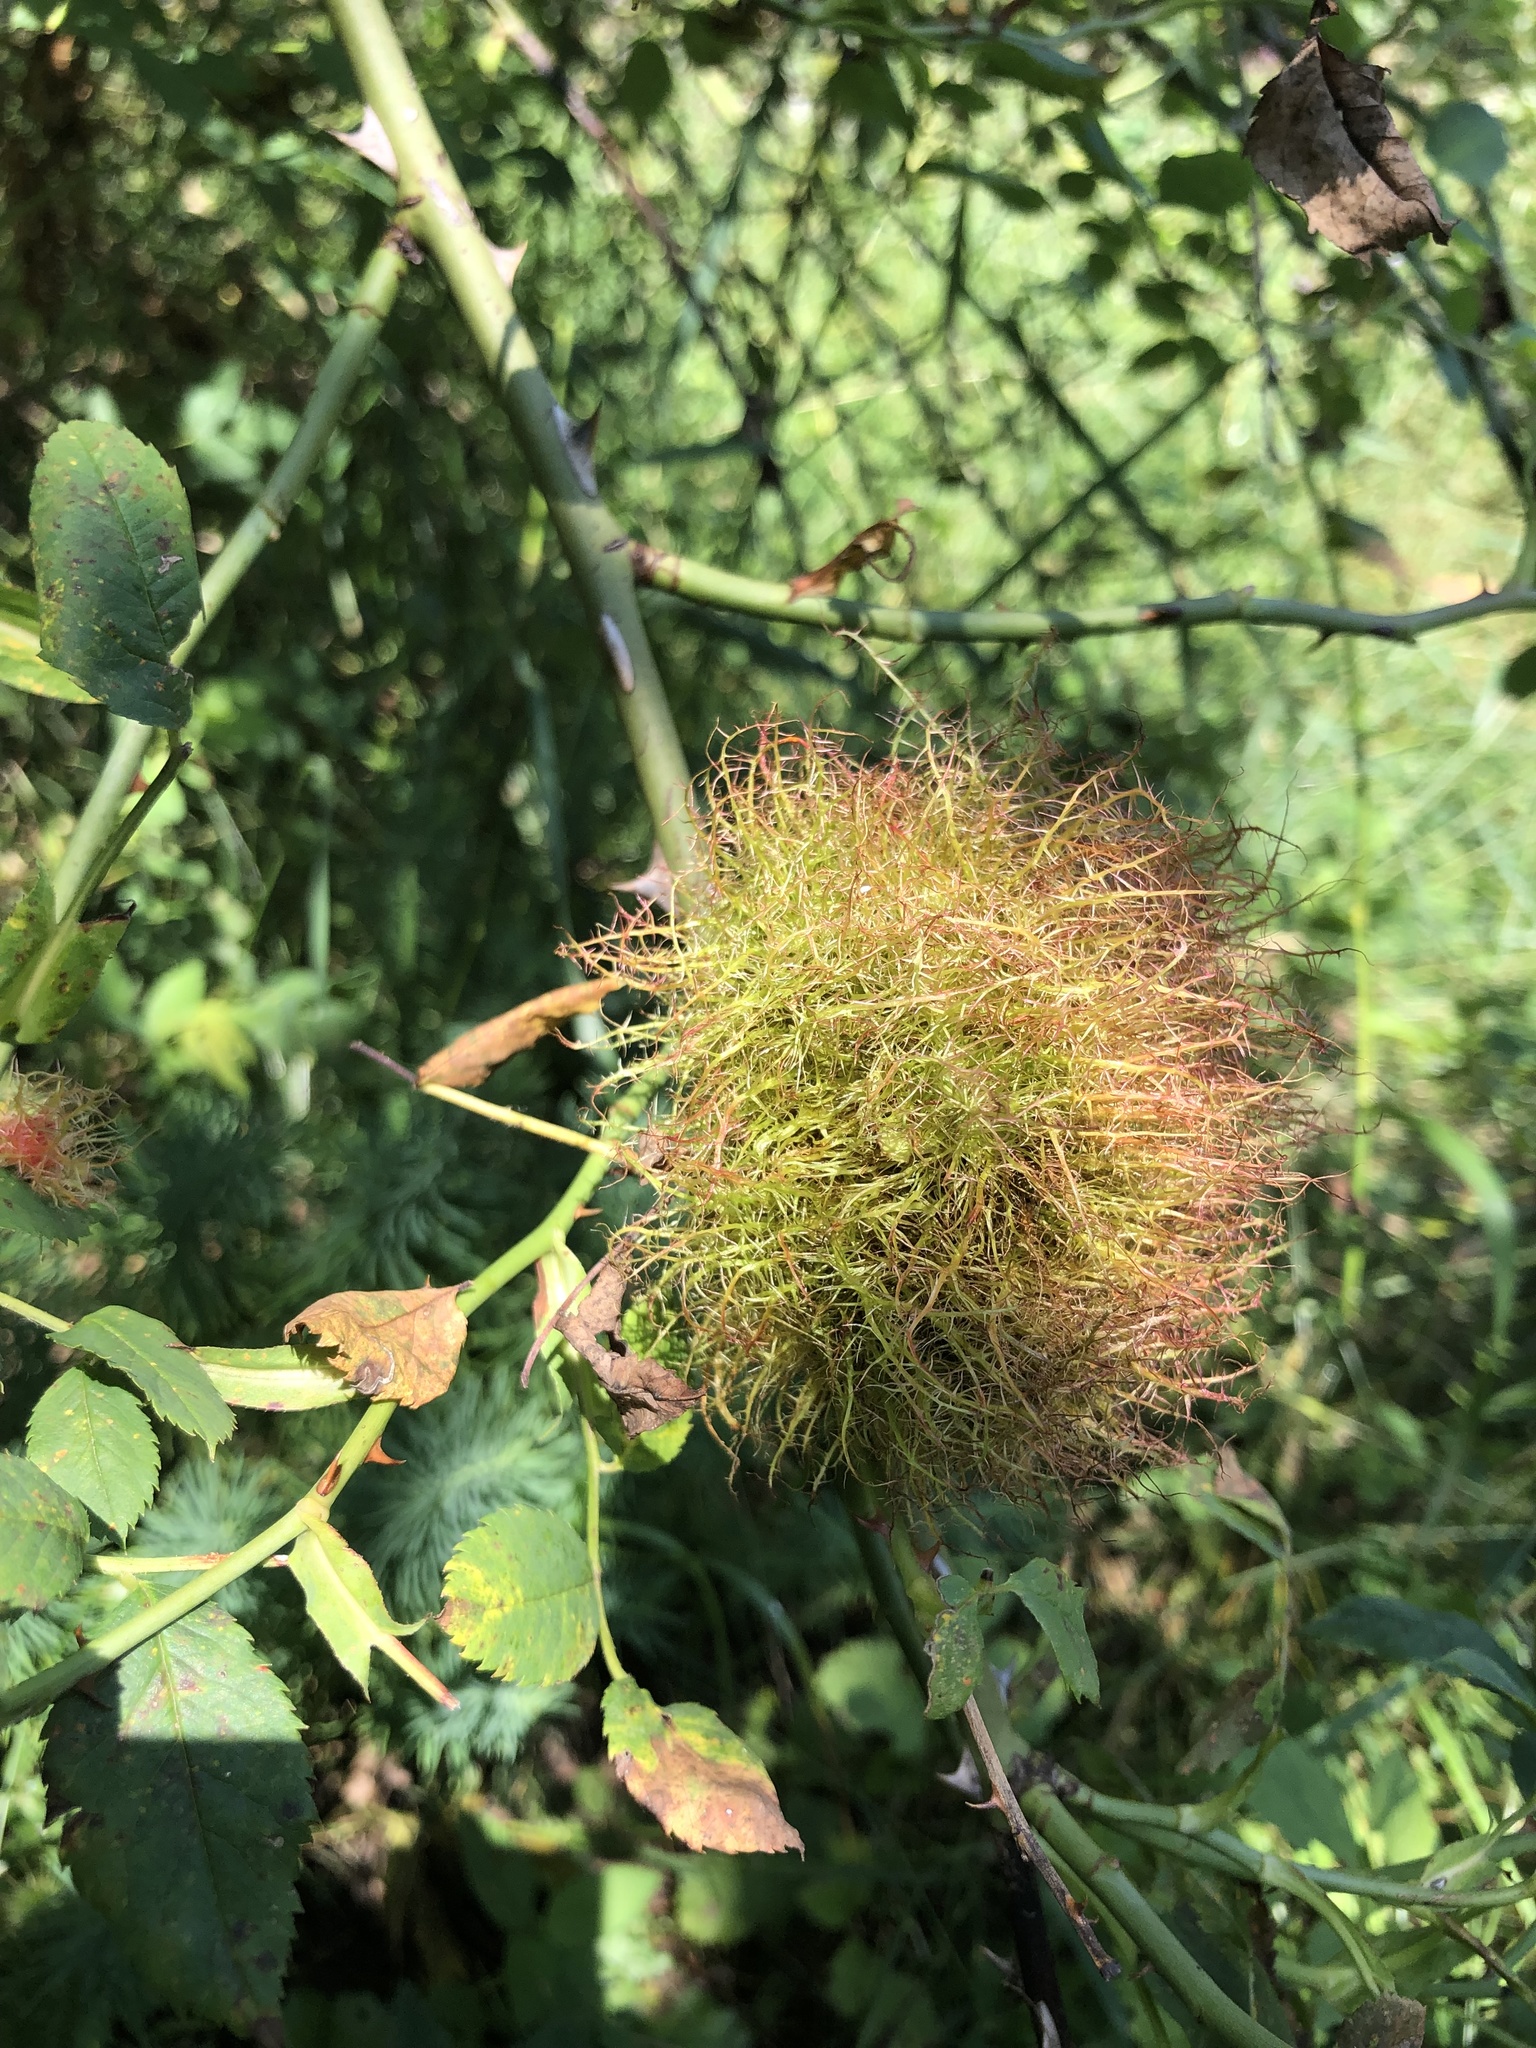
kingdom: Animalia
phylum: Arthropoda
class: Insecta
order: Hymenoptera
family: Cynipidae
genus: Diplolepis
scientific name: Diplolepis rosae
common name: Bedeguar gall
